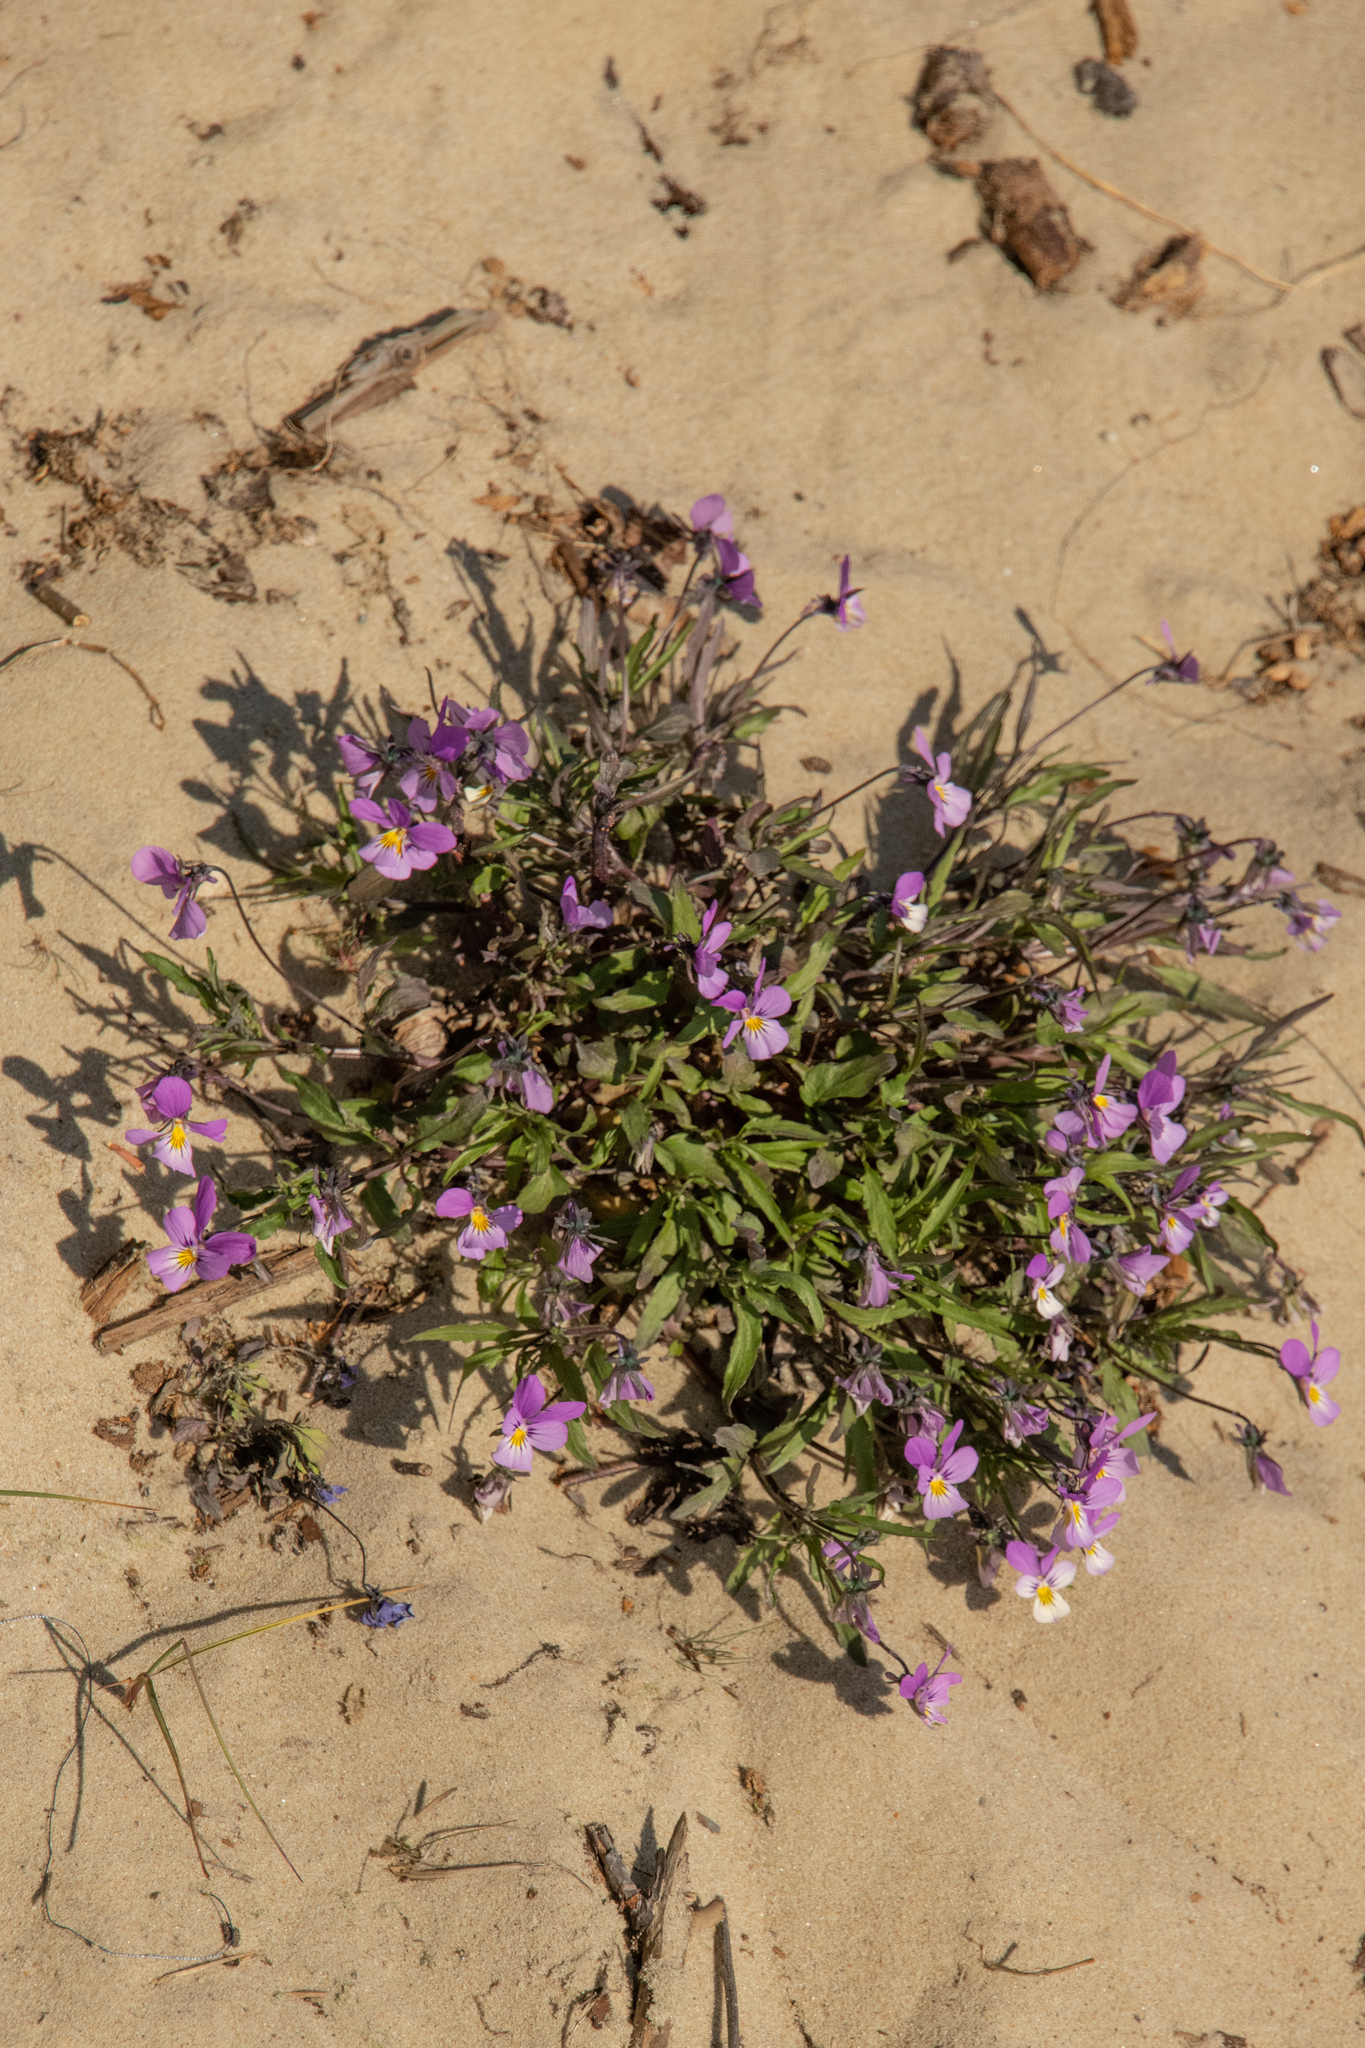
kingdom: Plantae
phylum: Tracheophyta
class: Magnoliopsida
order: Malpighiales
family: Violaceae
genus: Viola
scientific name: Viola tricolor
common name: Pansy
